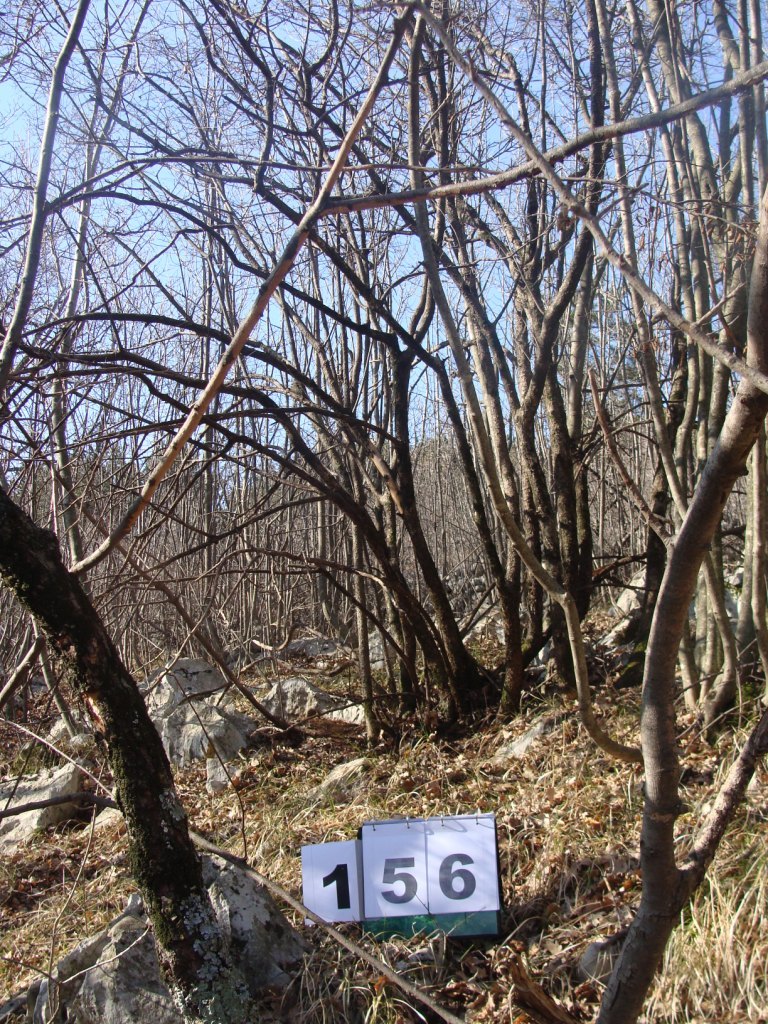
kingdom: Plantae
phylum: Tracheophyta
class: Magnoliopsida
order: Cornales
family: Cornaceae
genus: Cornus
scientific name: Cornus mas
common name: Cornelian-cherry
